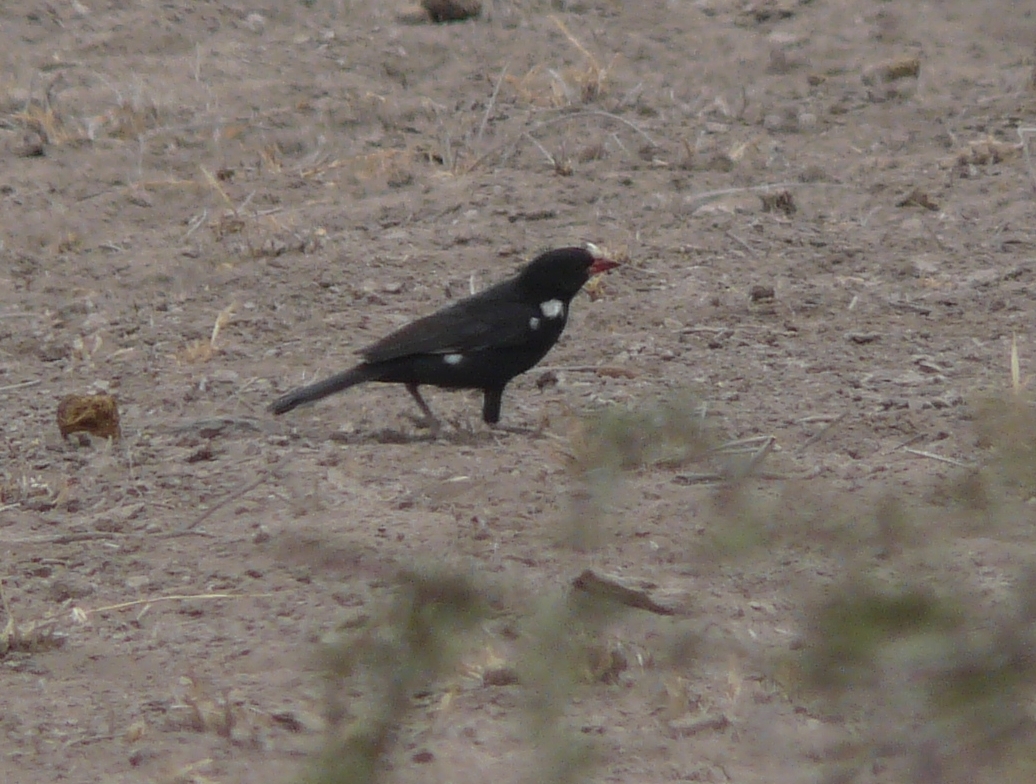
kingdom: Animalia
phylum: Chordata
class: Aves
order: Passeriformes
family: Ploceidae
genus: Bubalornis
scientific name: Bubalornis niger
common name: Red-billed buffalo weaver
